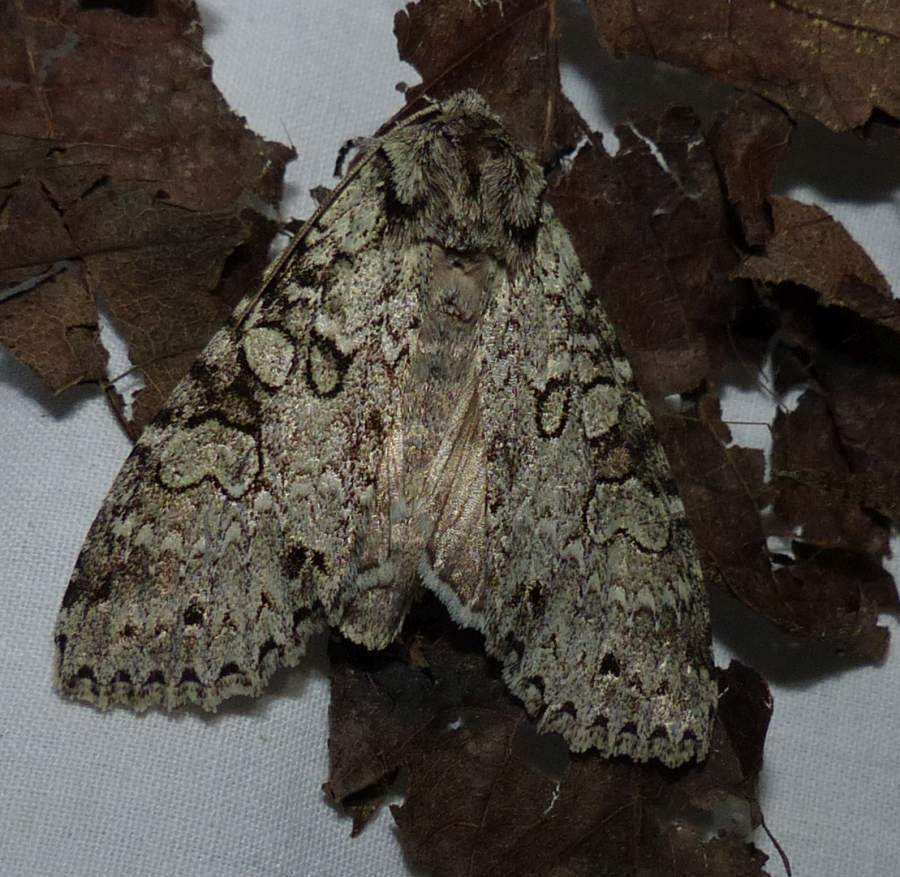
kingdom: Animalia
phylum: Arthropoda
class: Insecta
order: Lepidoptera
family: Noctuidae
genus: Polia
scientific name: Polia nimbosa
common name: Stormy arches
